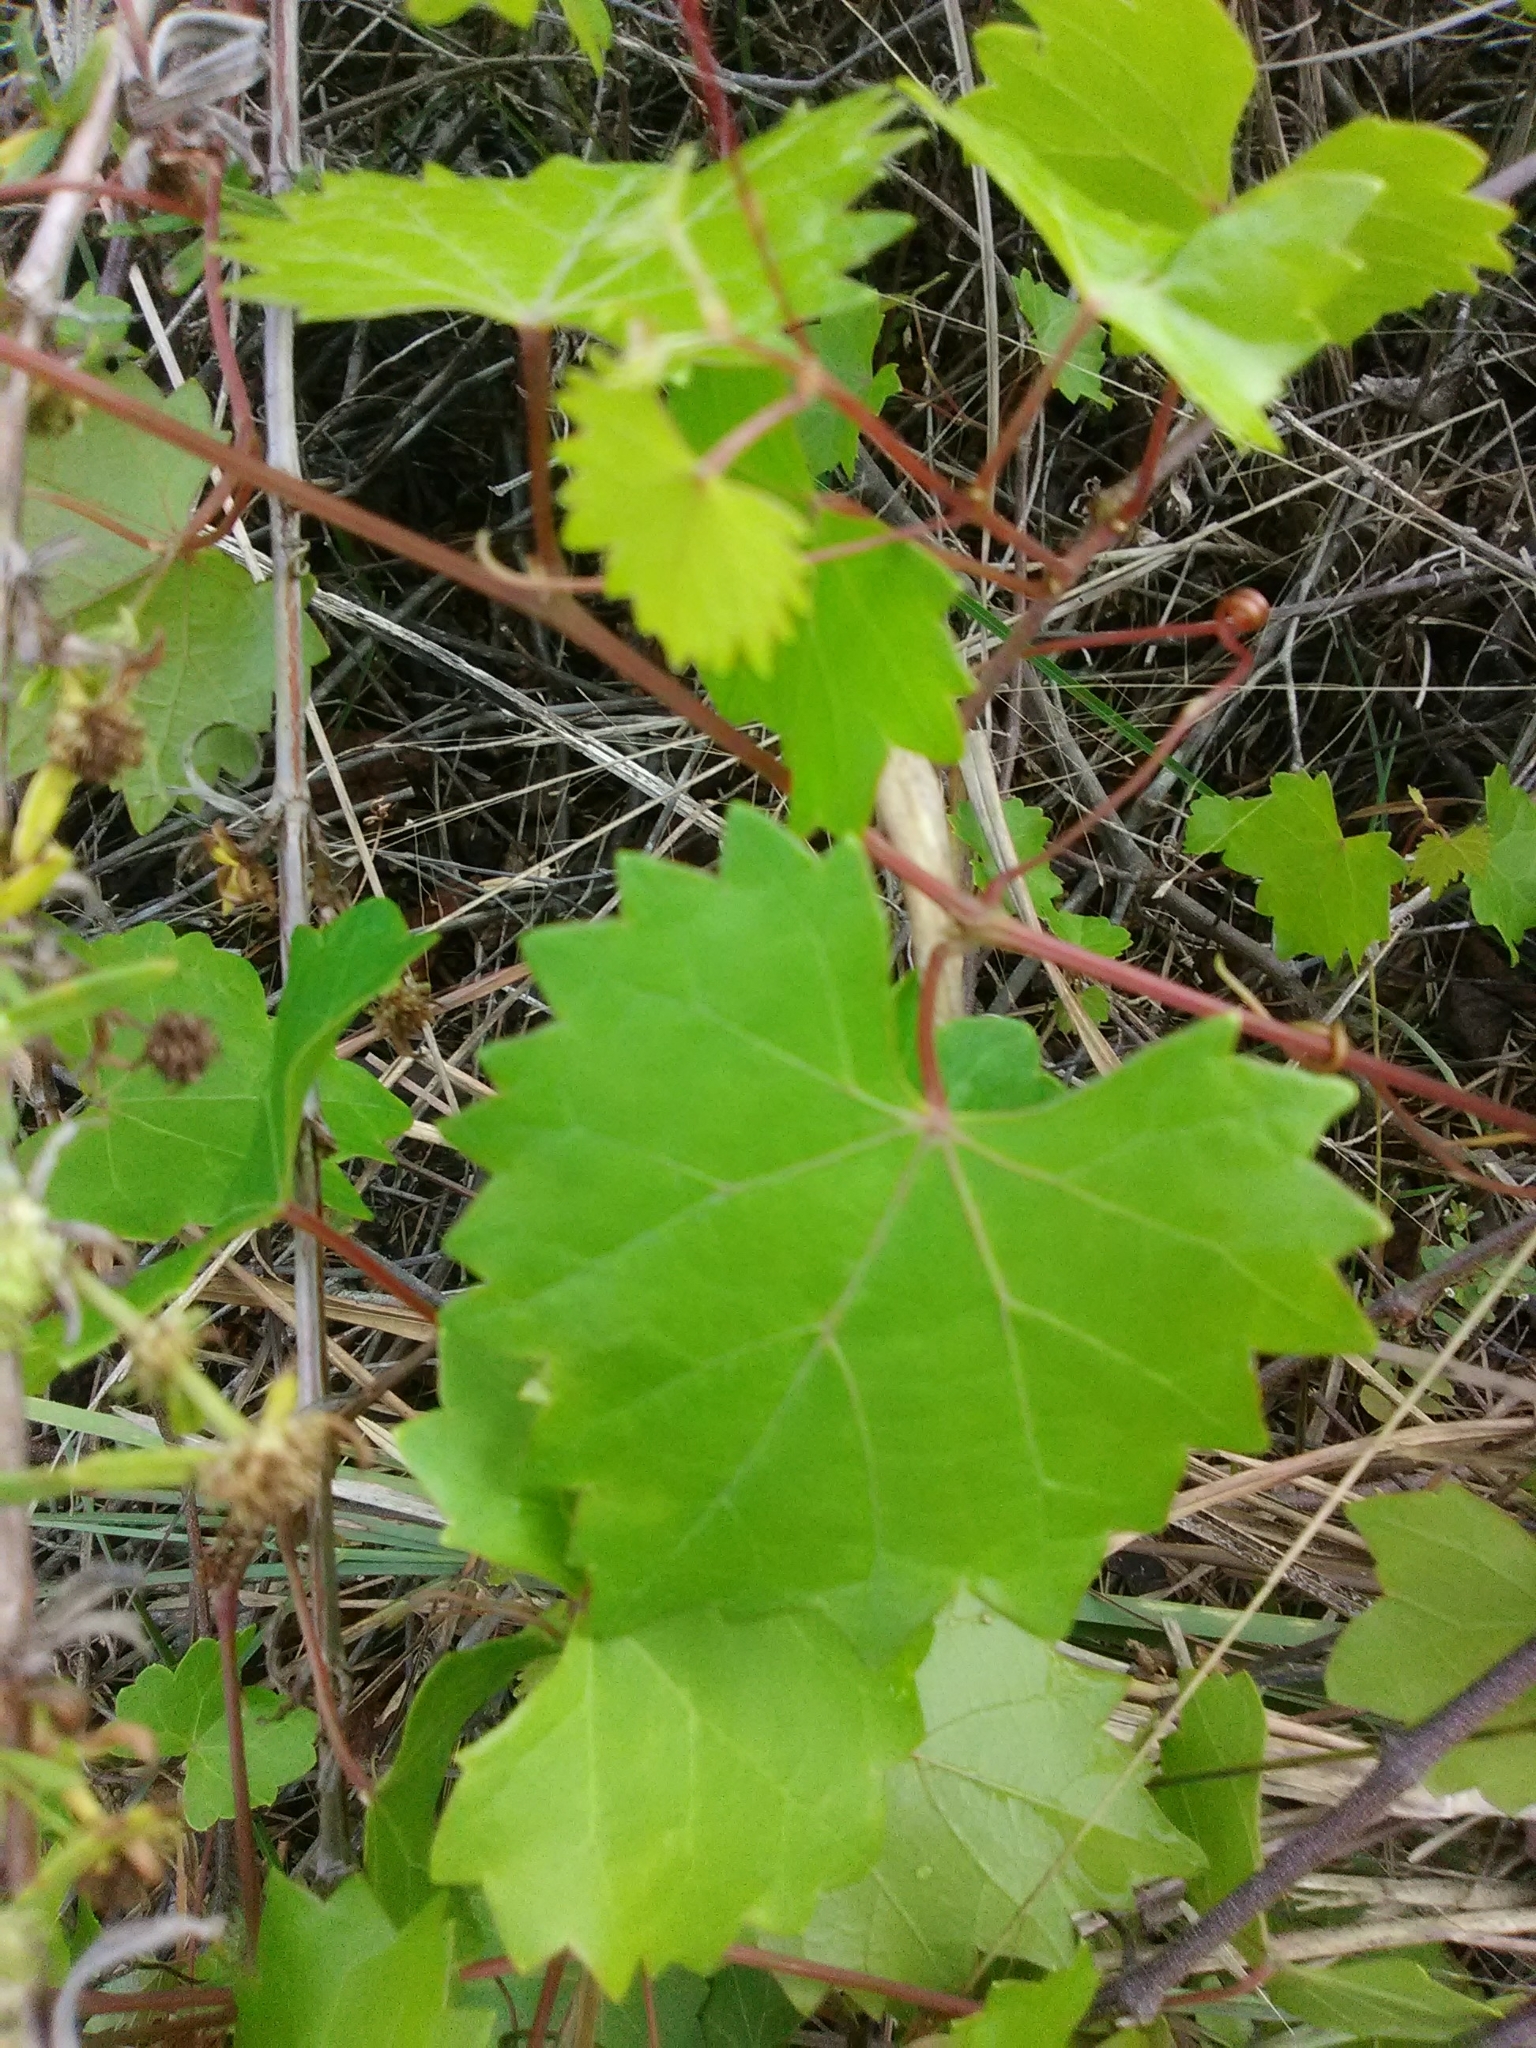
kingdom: Plantae
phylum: Tracheophyta
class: Magnoliopsida
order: Vitales
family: Vitaceae
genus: Vitis
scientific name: Vitis rotundifolia
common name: Muscadine grape
